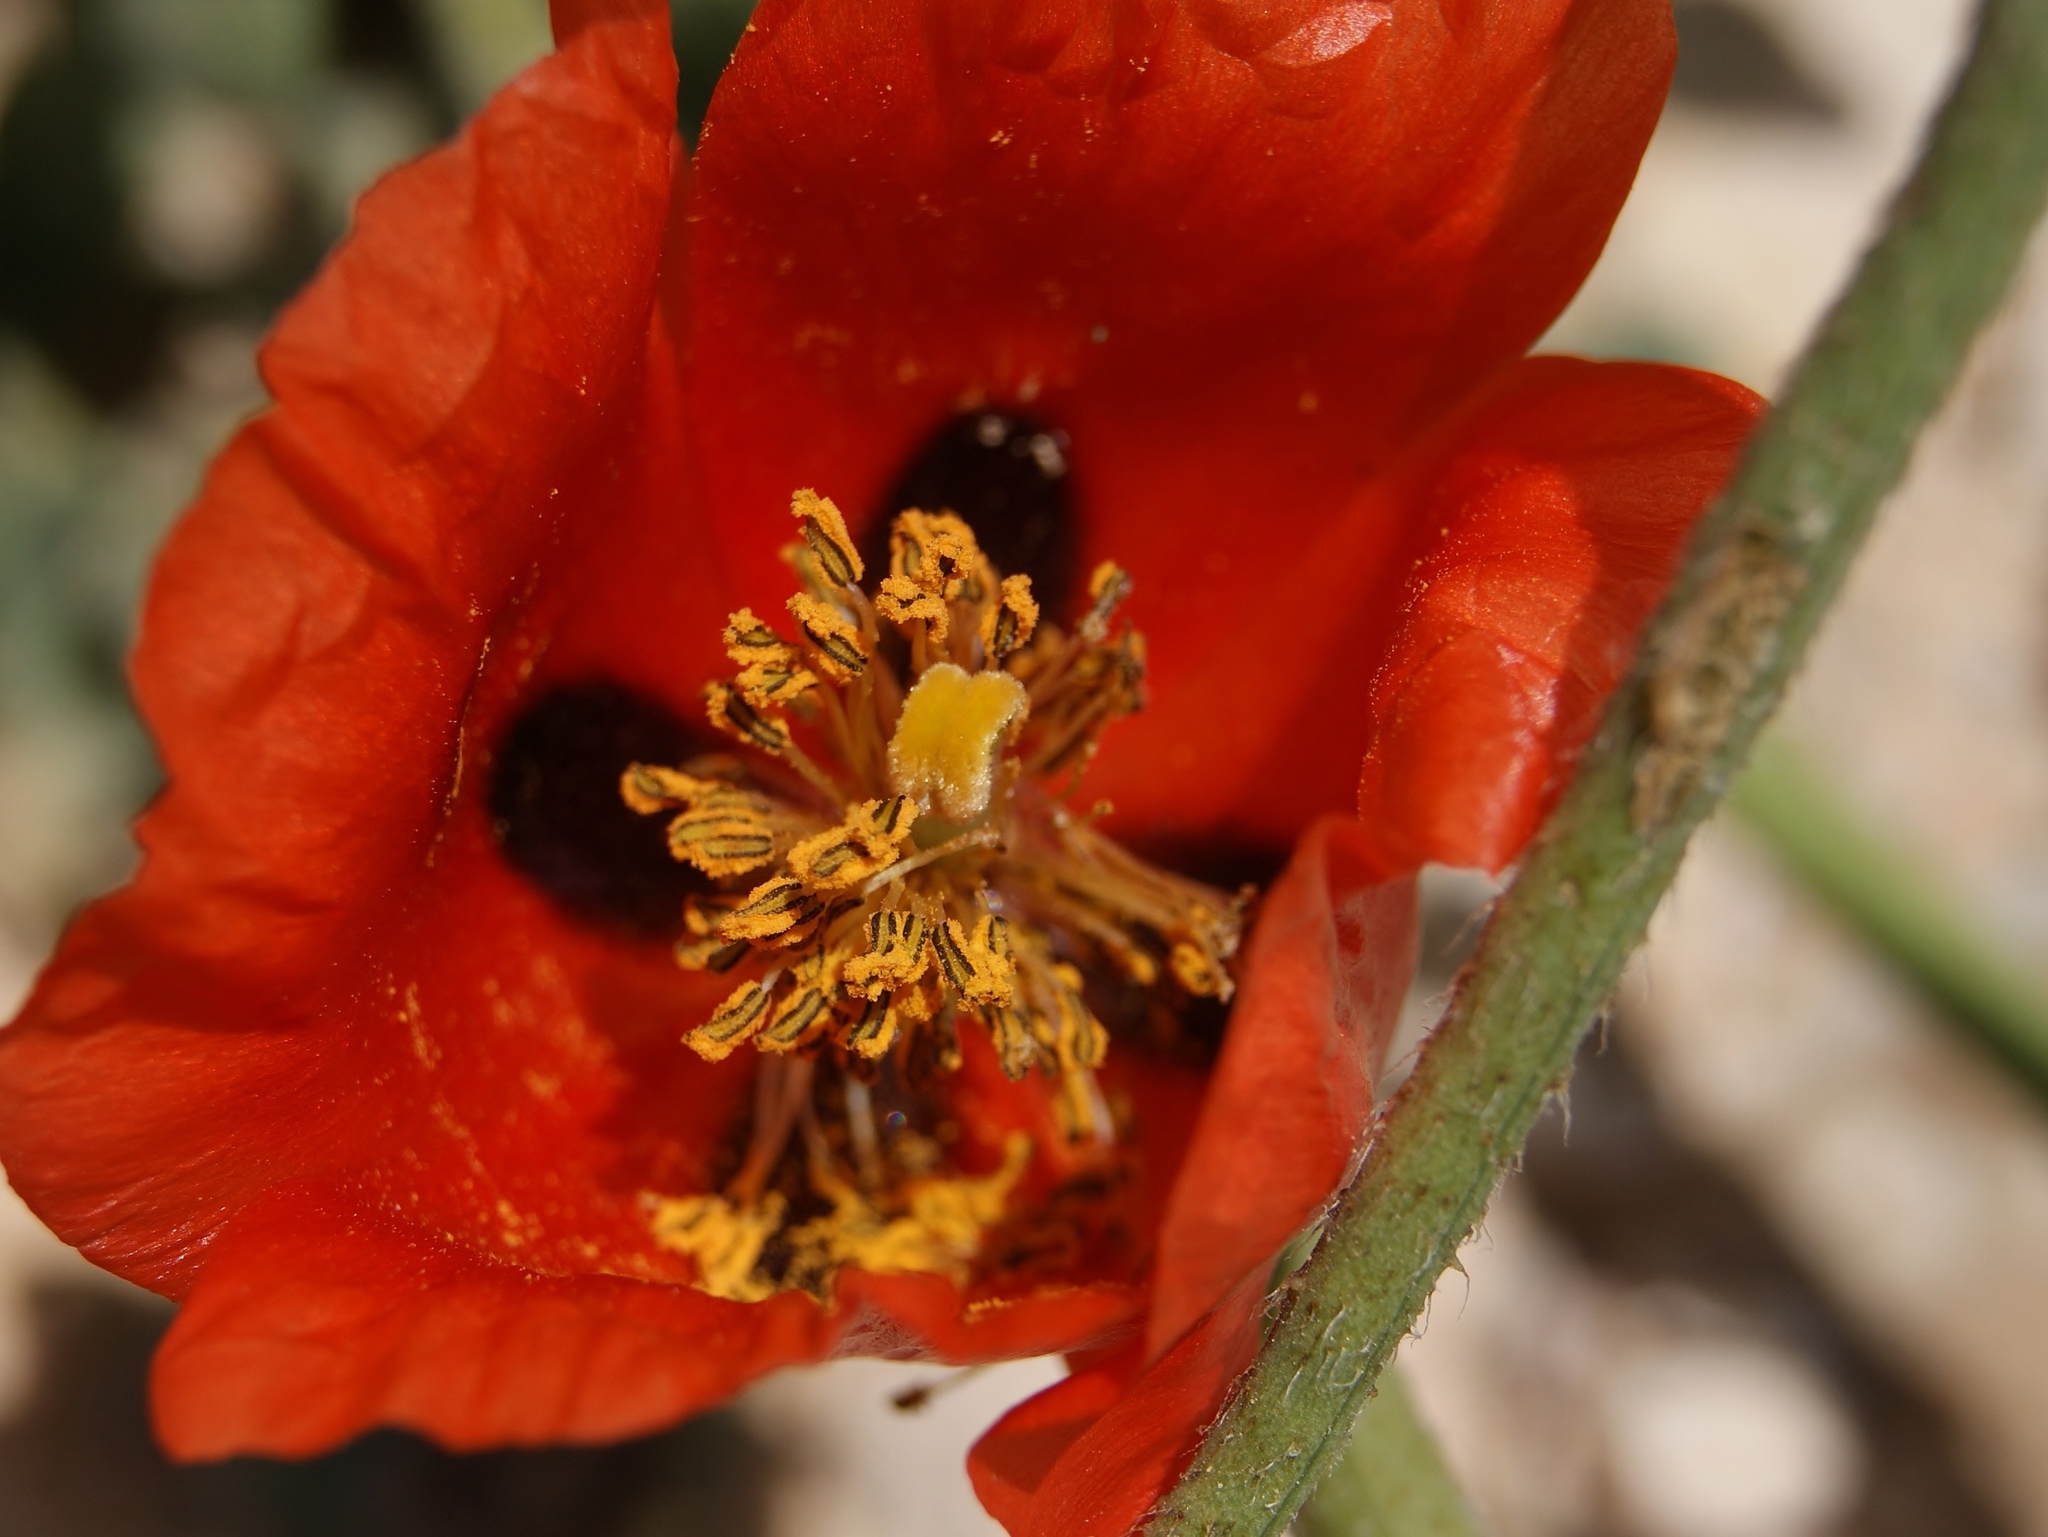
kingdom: Plantae
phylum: Tracheophyta
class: Magnoliopsida
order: Ranunculales
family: Papaveraceae
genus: Glaucium
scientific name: Glaucium corniculatum
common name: Red horned-poppy
